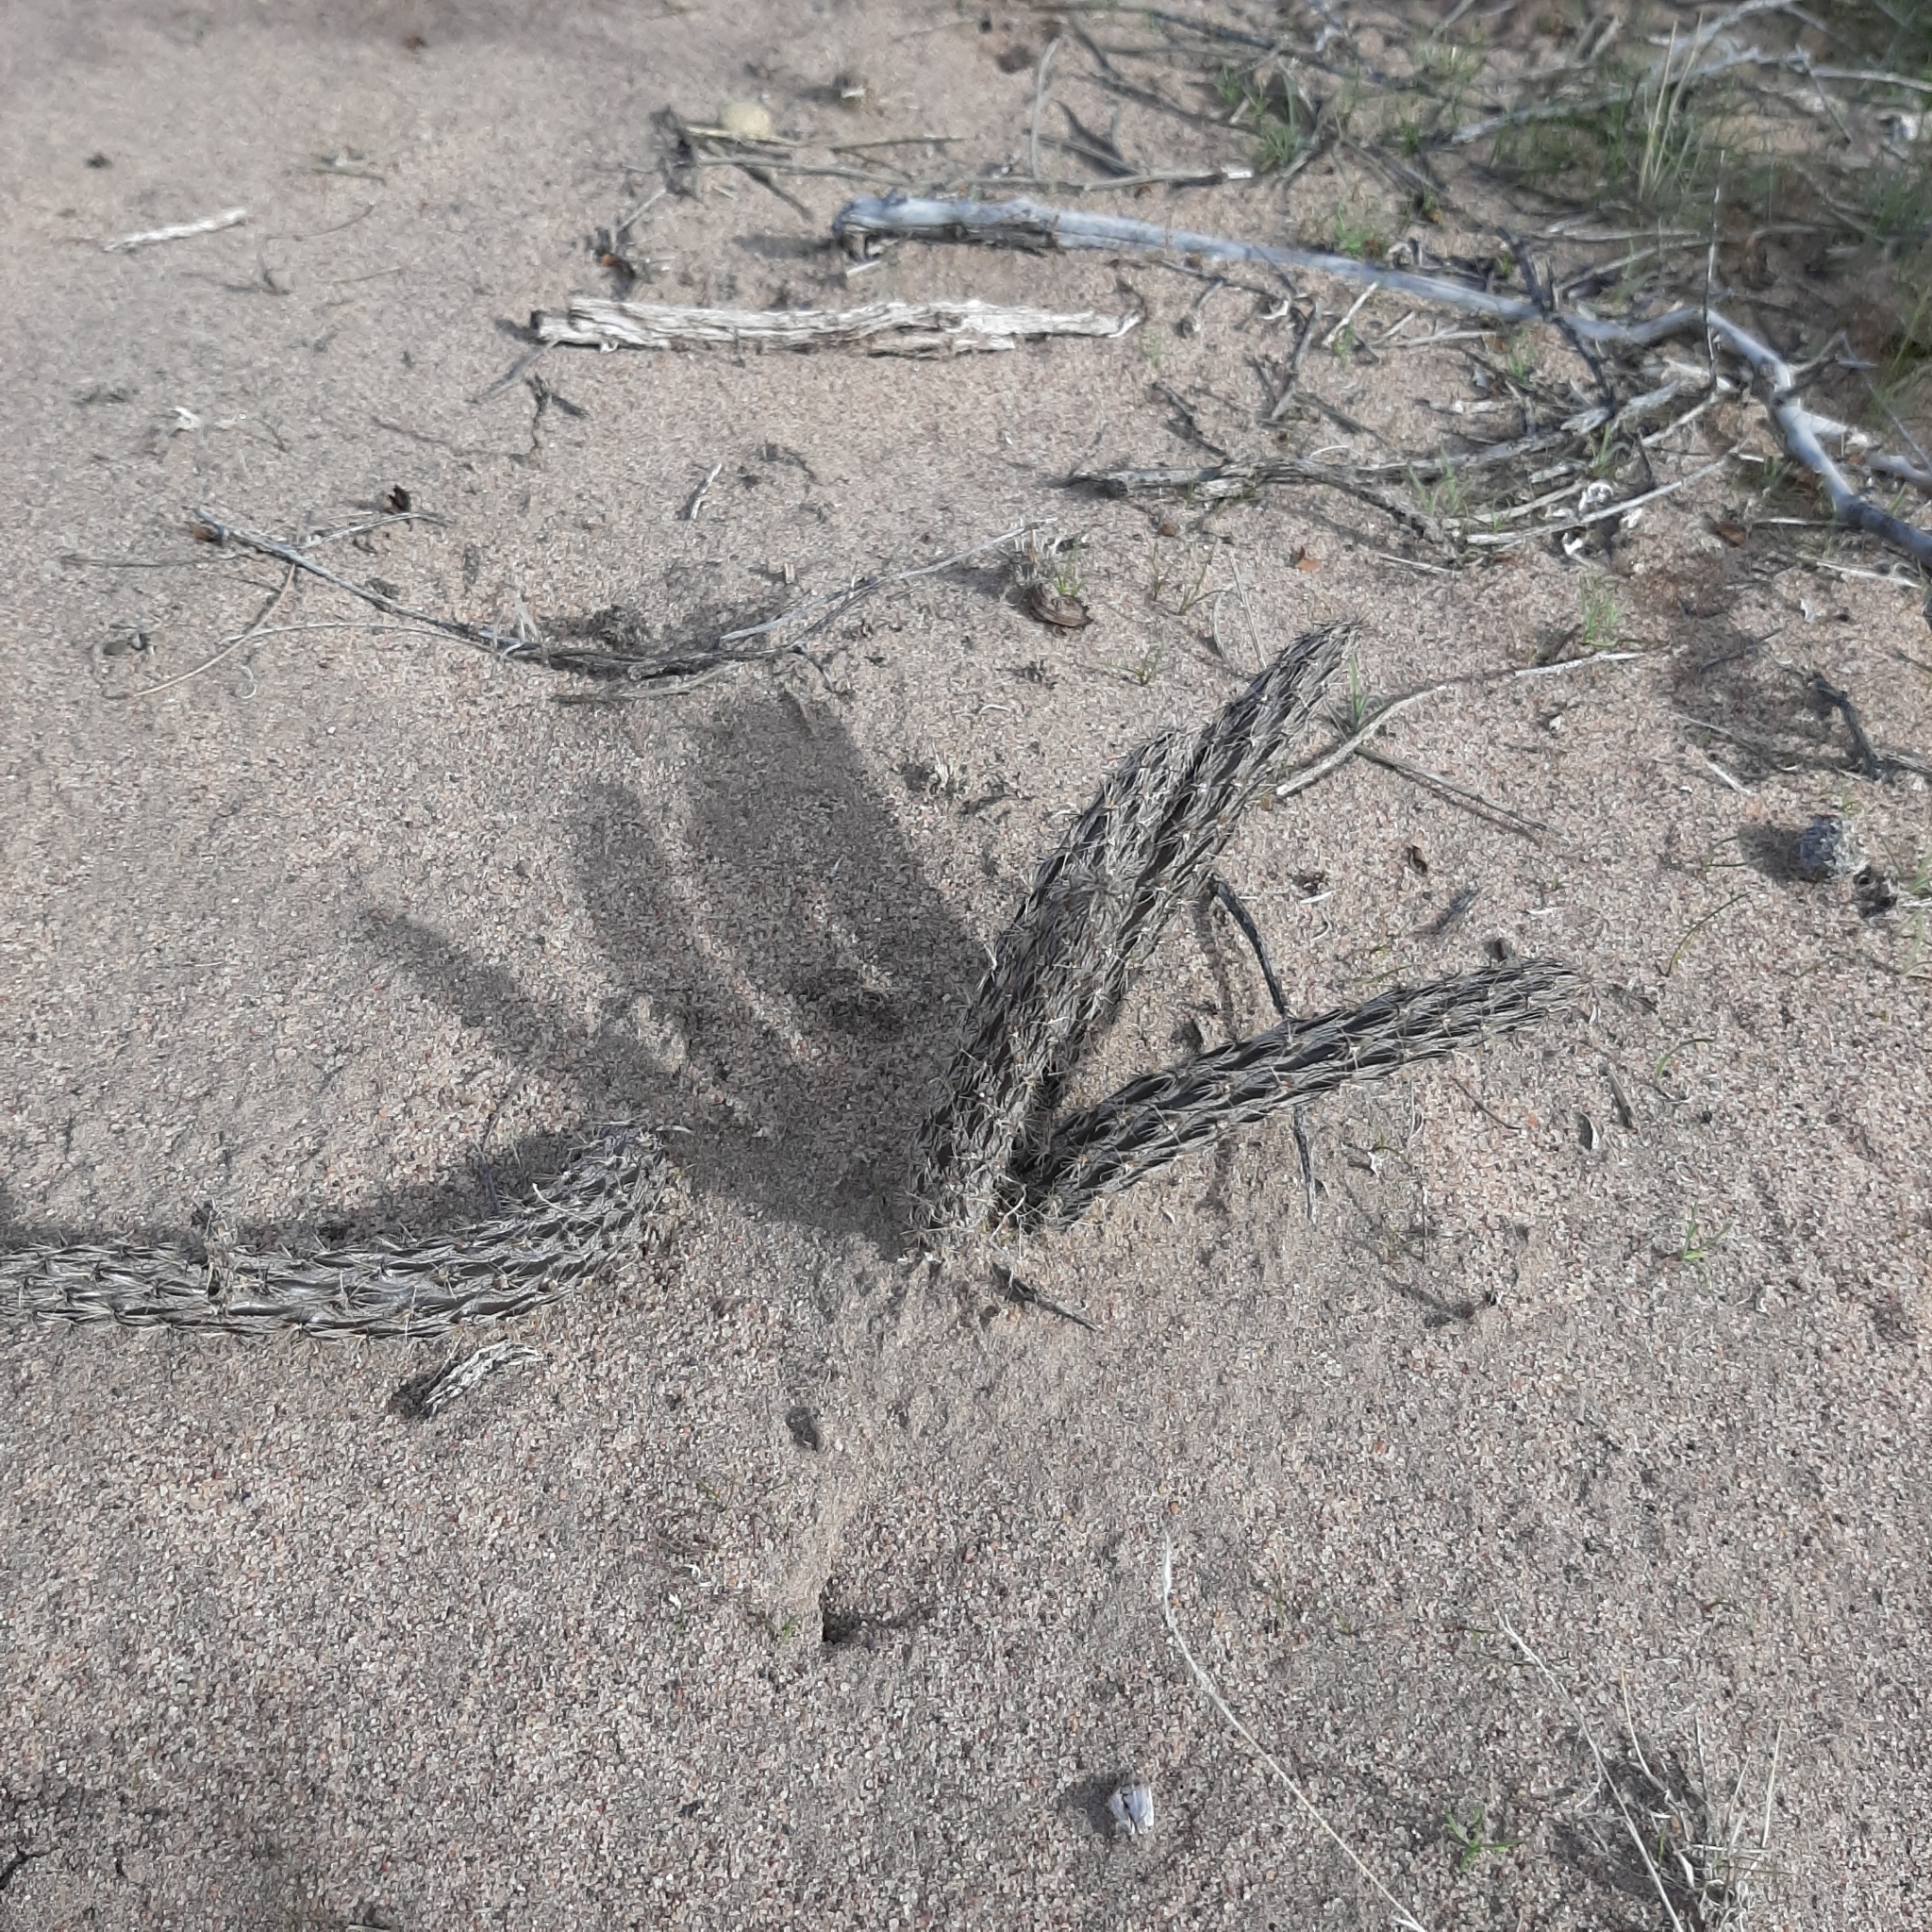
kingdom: Plantae
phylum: Tracheophyta
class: Magnoliopsida
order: Caryophyllales
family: Cactaceae
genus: Pterocactus
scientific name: Pterocactus tuberosus
